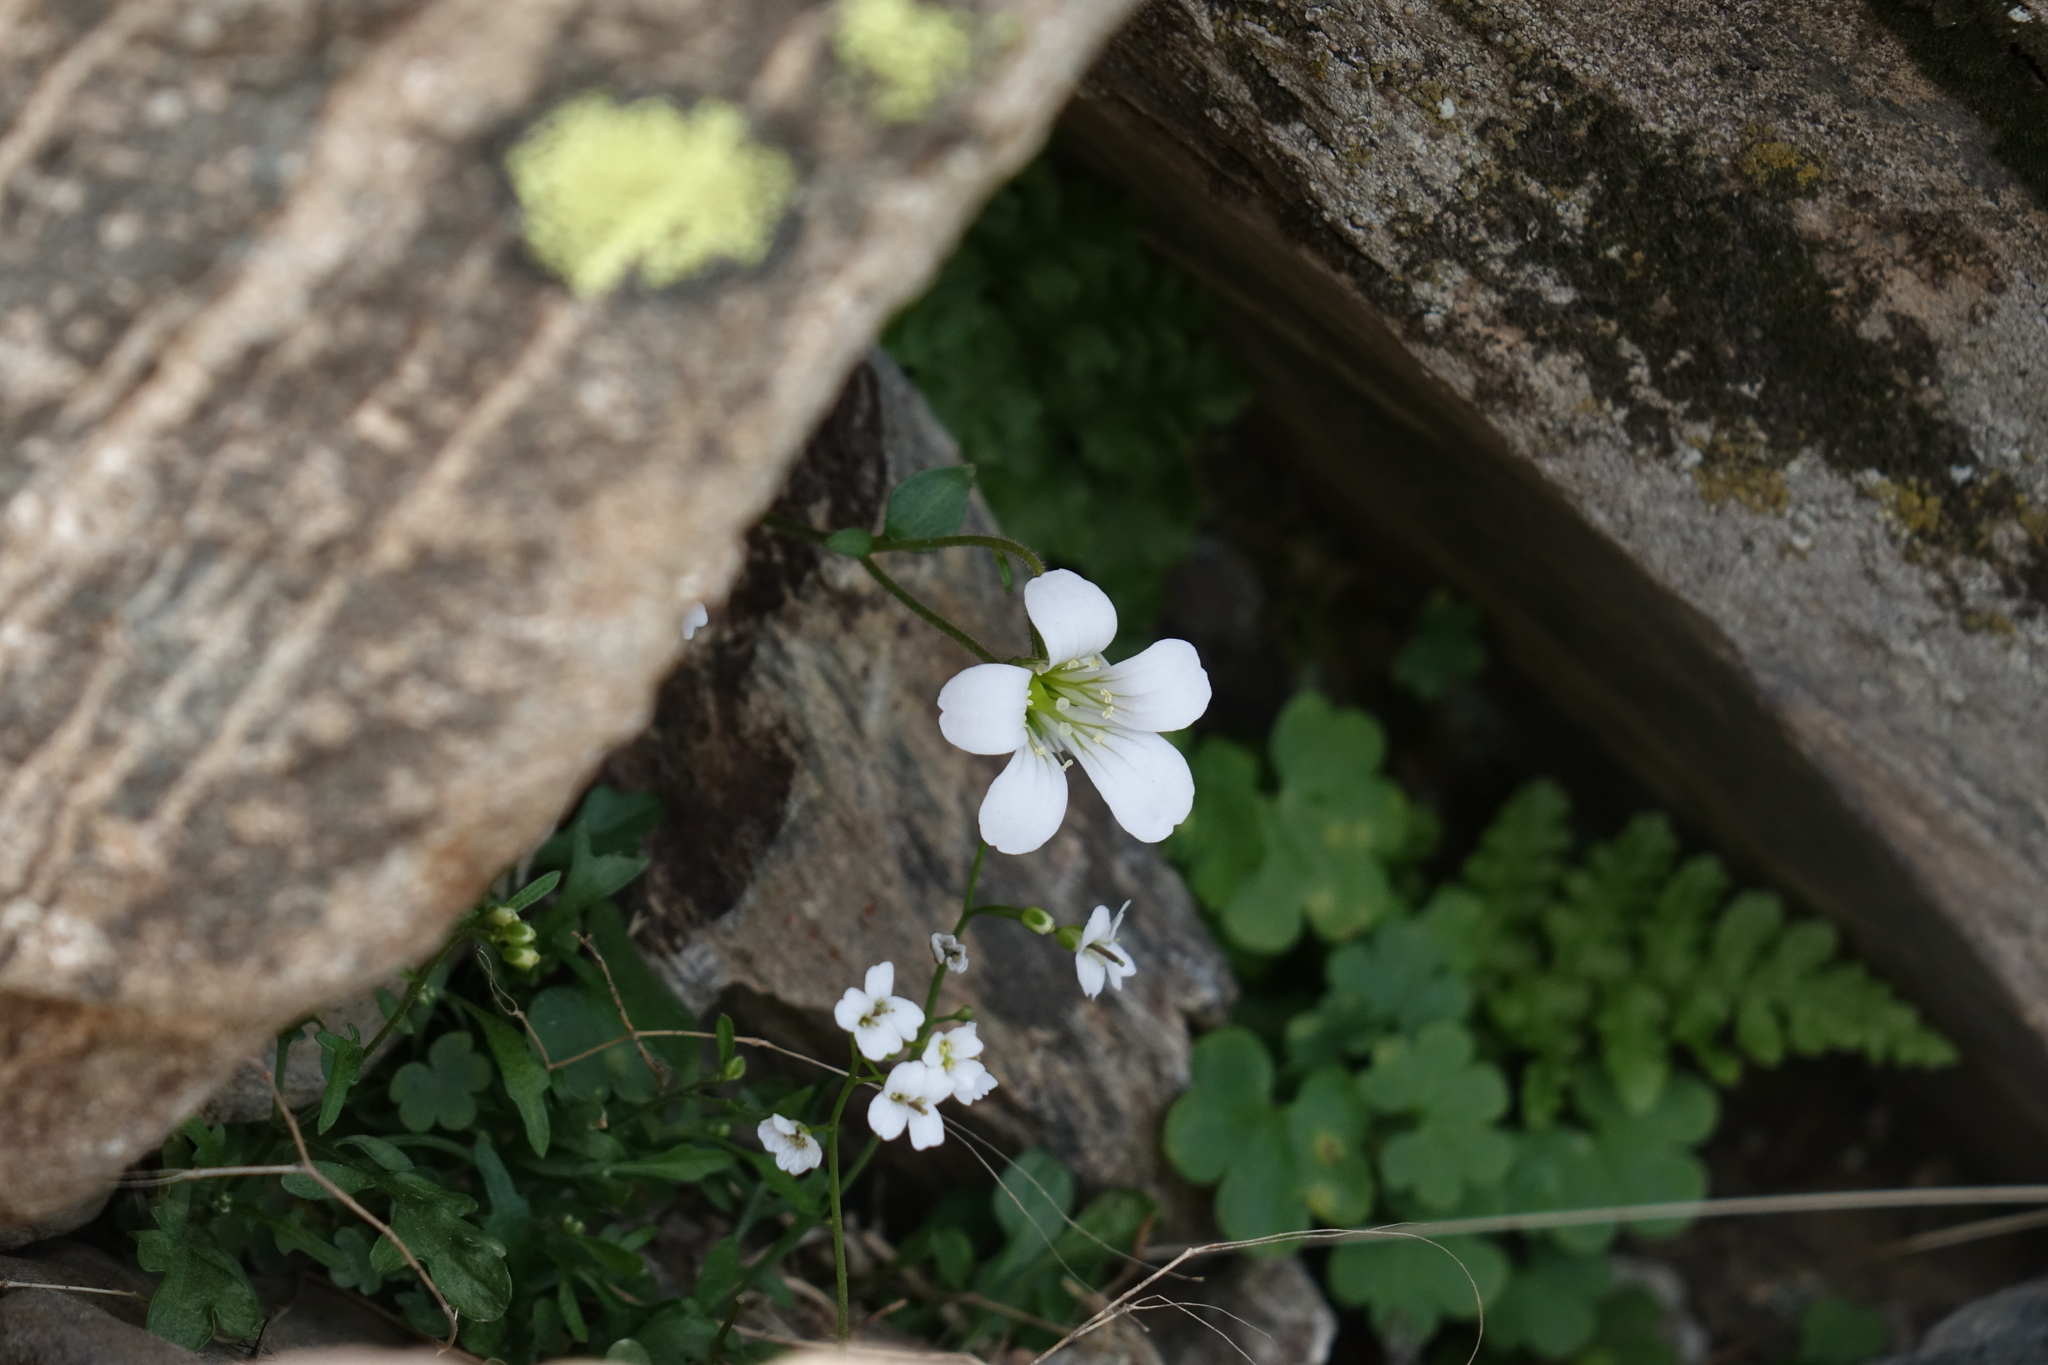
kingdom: Plantae
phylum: Tracheophyta
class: Magnoliopsida
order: Saxifragales
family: Saxifragaceae
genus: Saxifraga
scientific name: Saxifraga sibirica
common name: Siberian saxifrage
